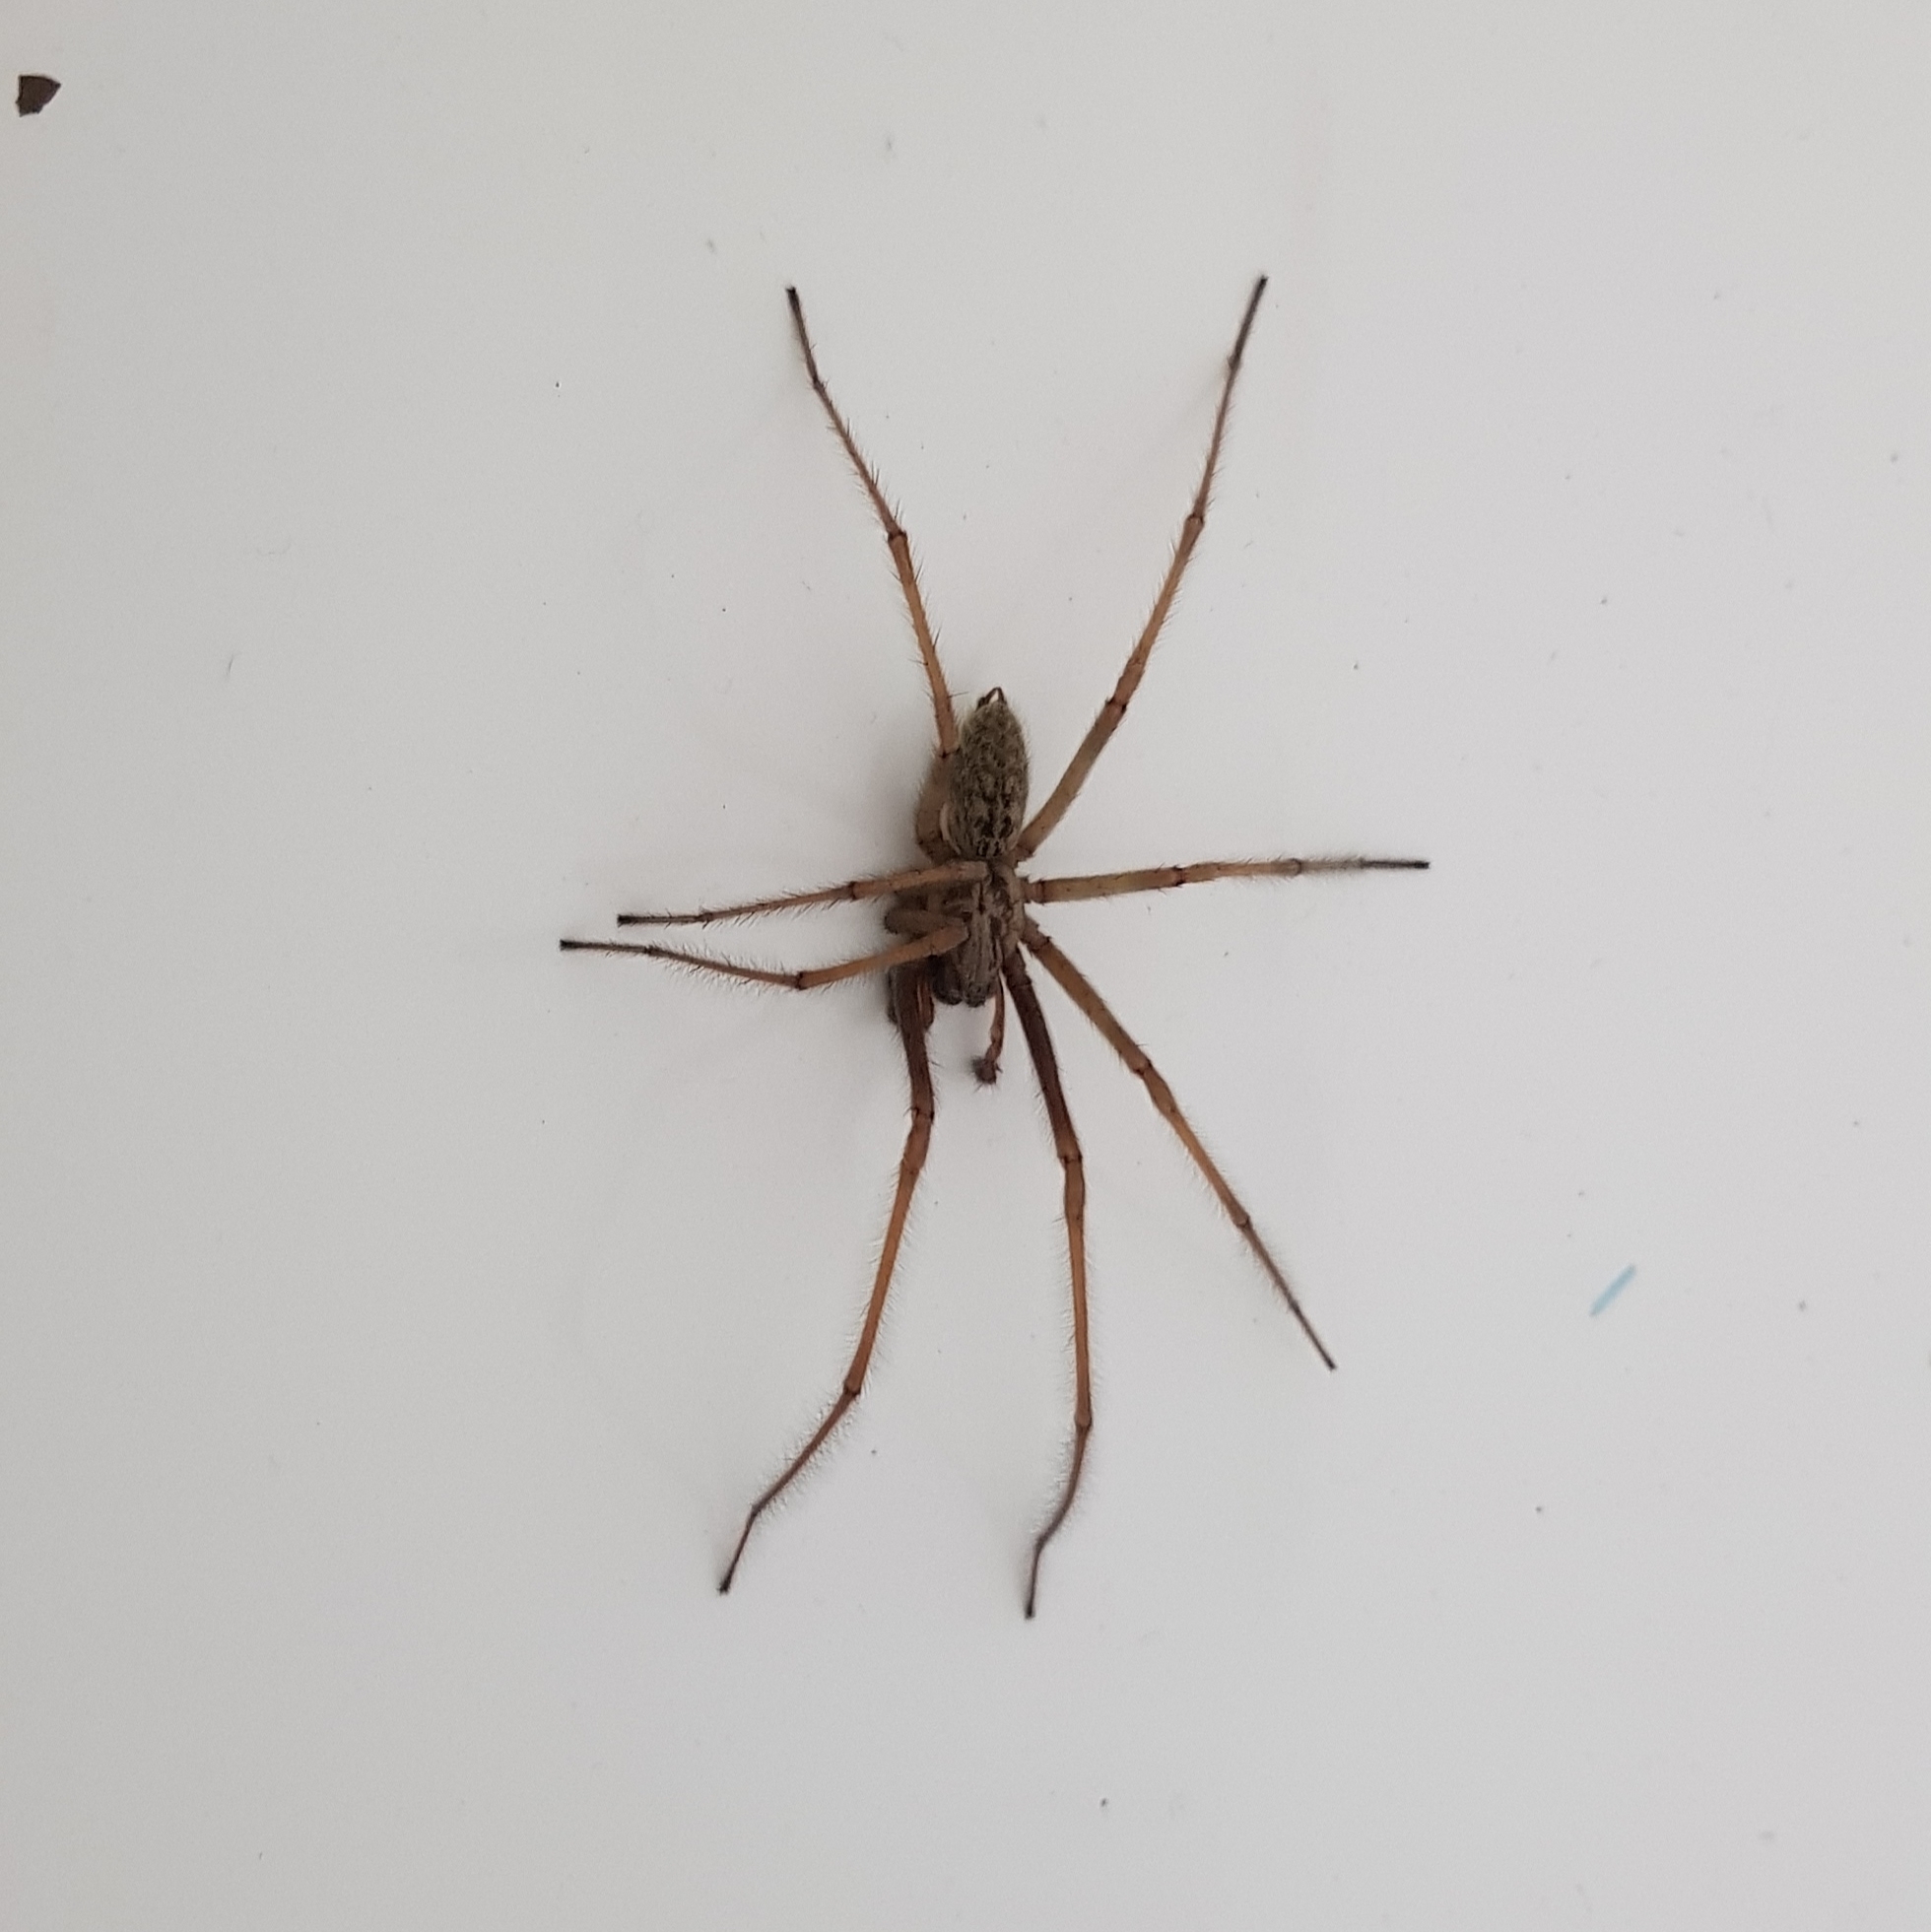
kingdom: Animalia
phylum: Arthropoda
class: Arachnida
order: Araneae
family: Agelenidae
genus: Eratigena
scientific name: Eratigena atrica
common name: Giant house spider
